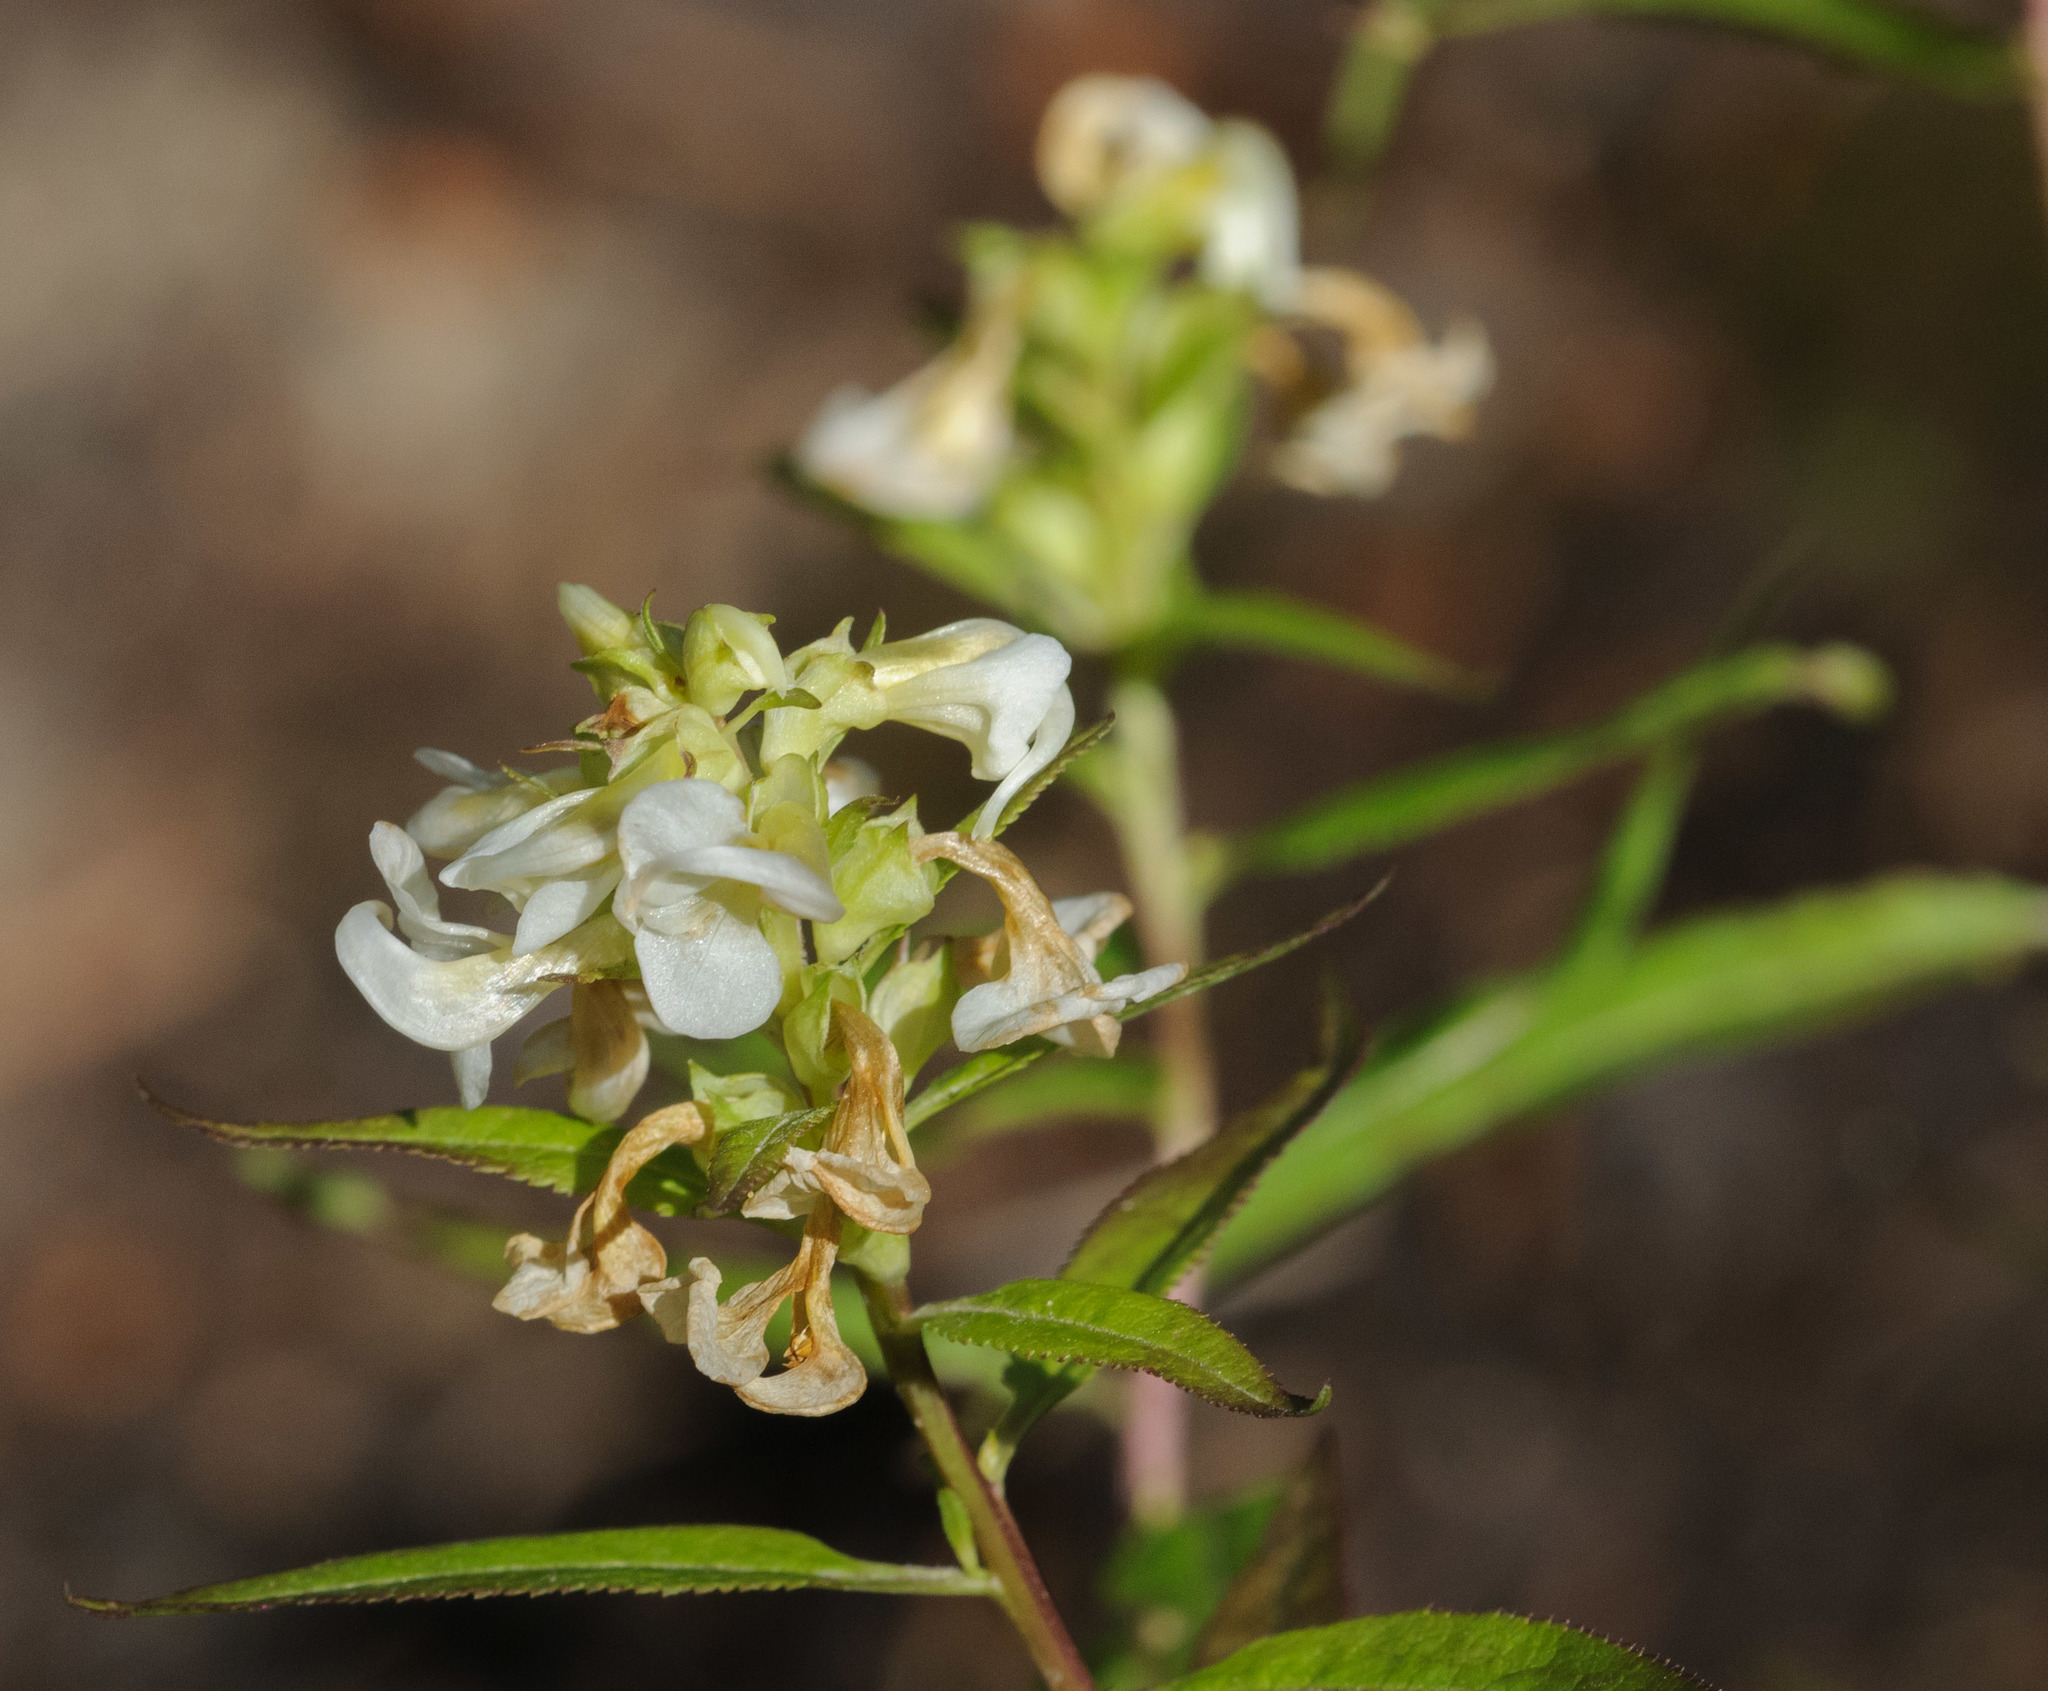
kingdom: Plantae
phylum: Tracheophyta
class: Magnoliopsida
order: Lamiales
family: Orobanchaceae
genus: Pedicularis
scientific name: Pedicularis racemosa
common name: Leafy lousewort
